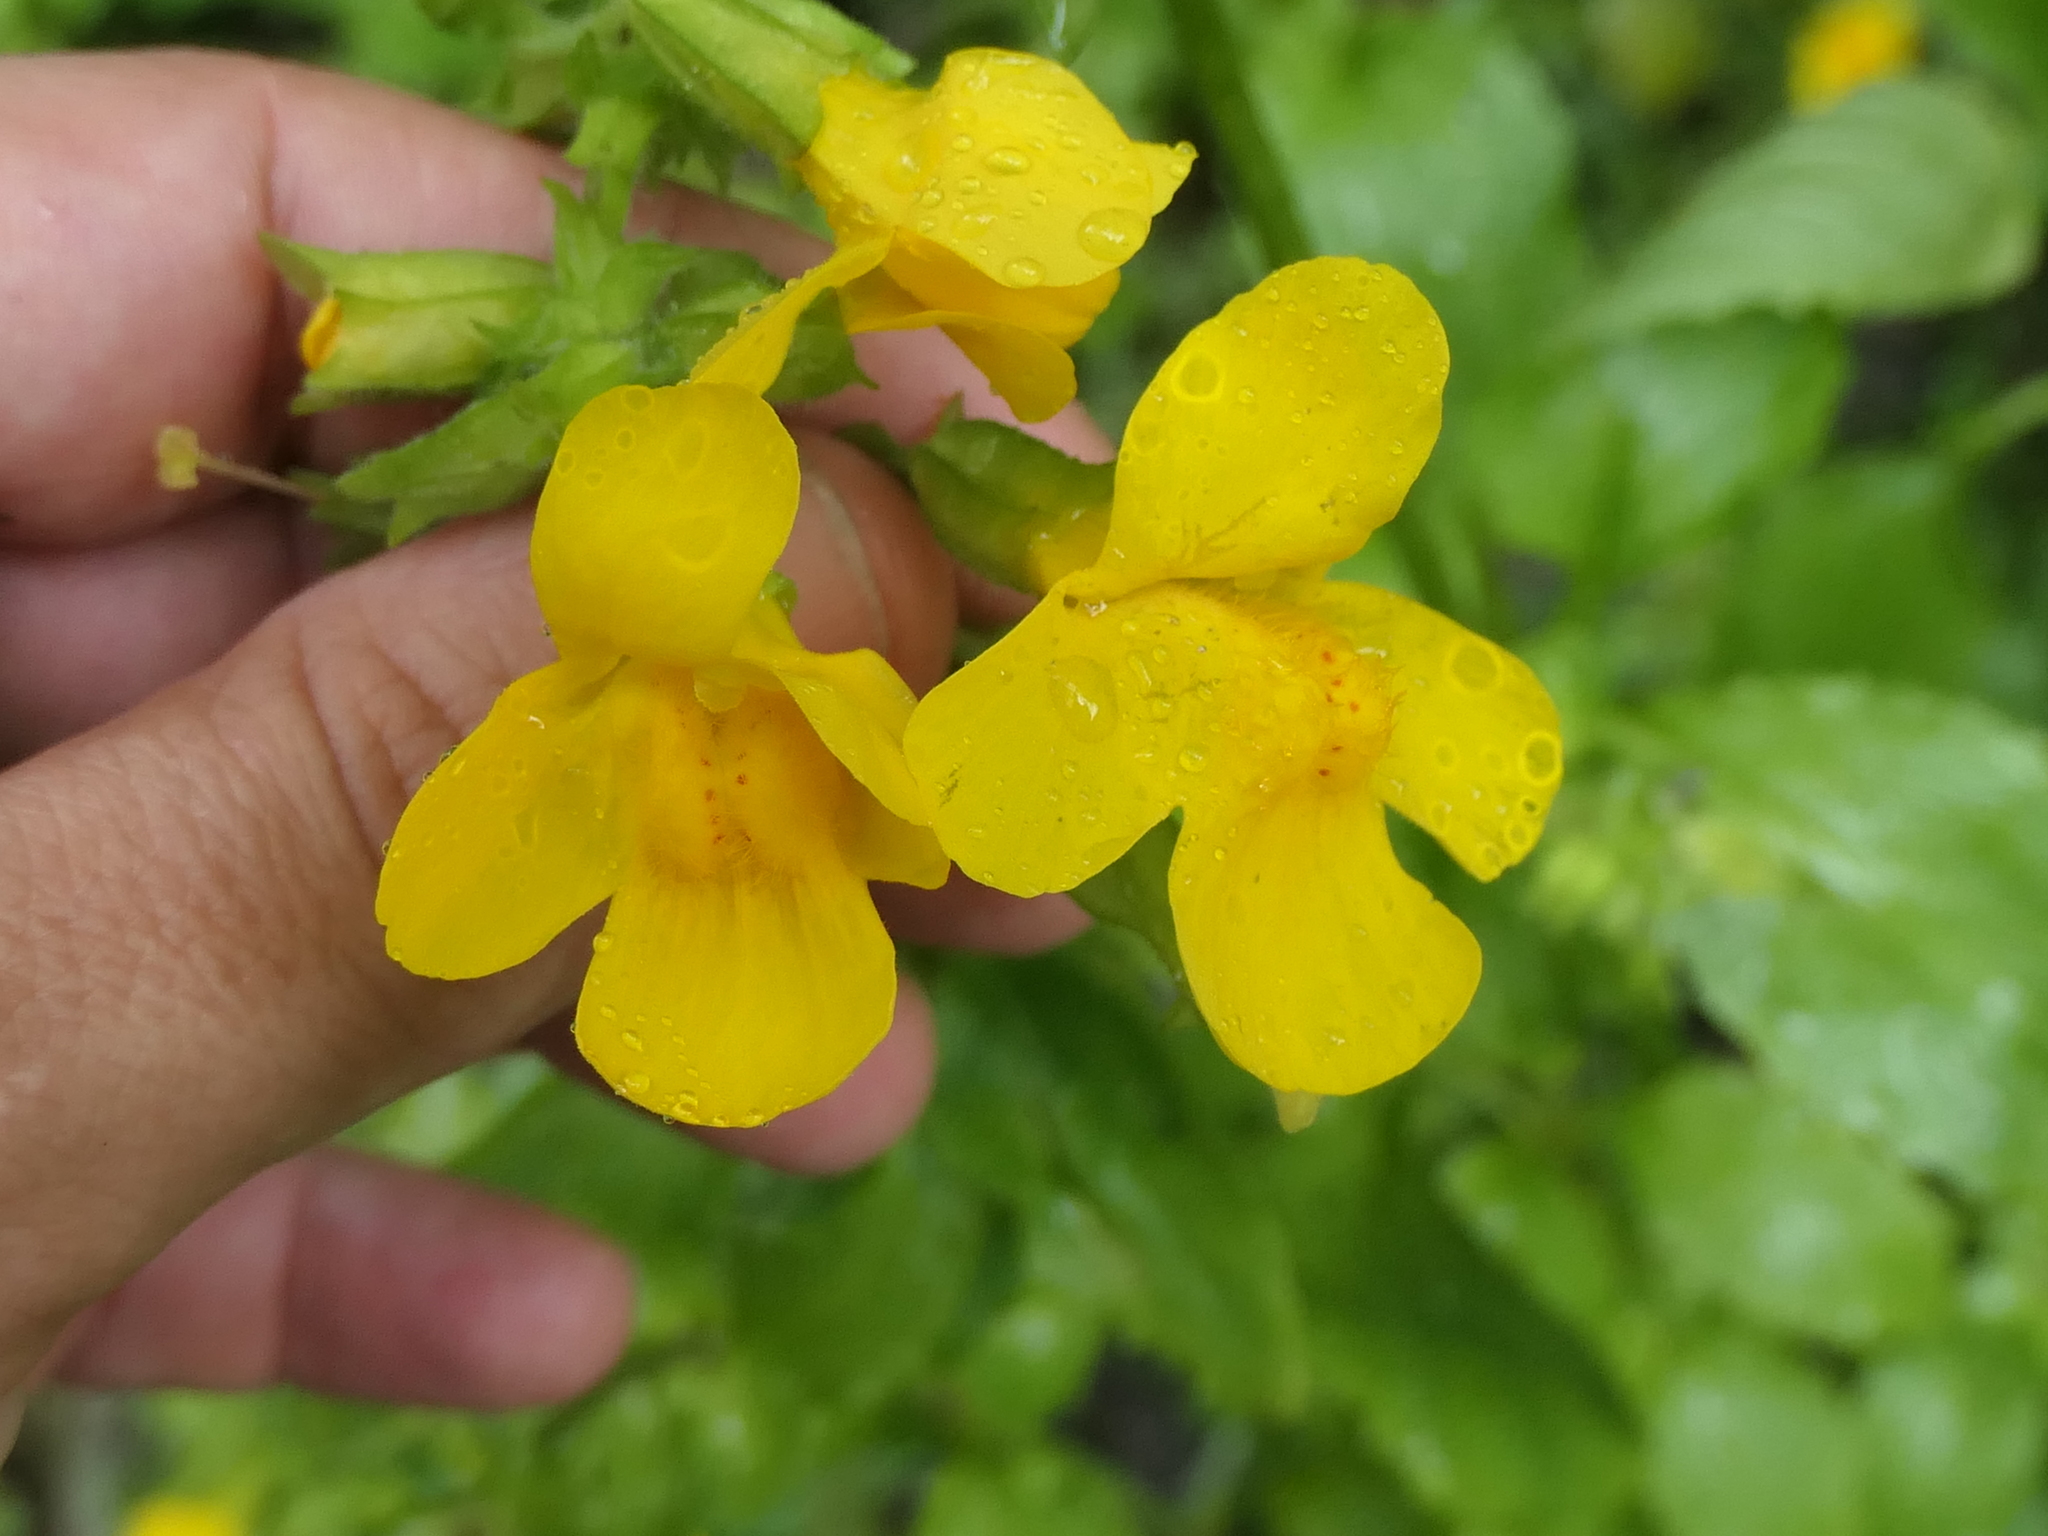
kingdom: Plantae
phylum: Tracheophyta
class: Magnoliopsida
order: Lamiales
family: Phrymaceae
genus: Erythranthe
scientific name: Erythranthe guttata
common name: Monkeyflower
